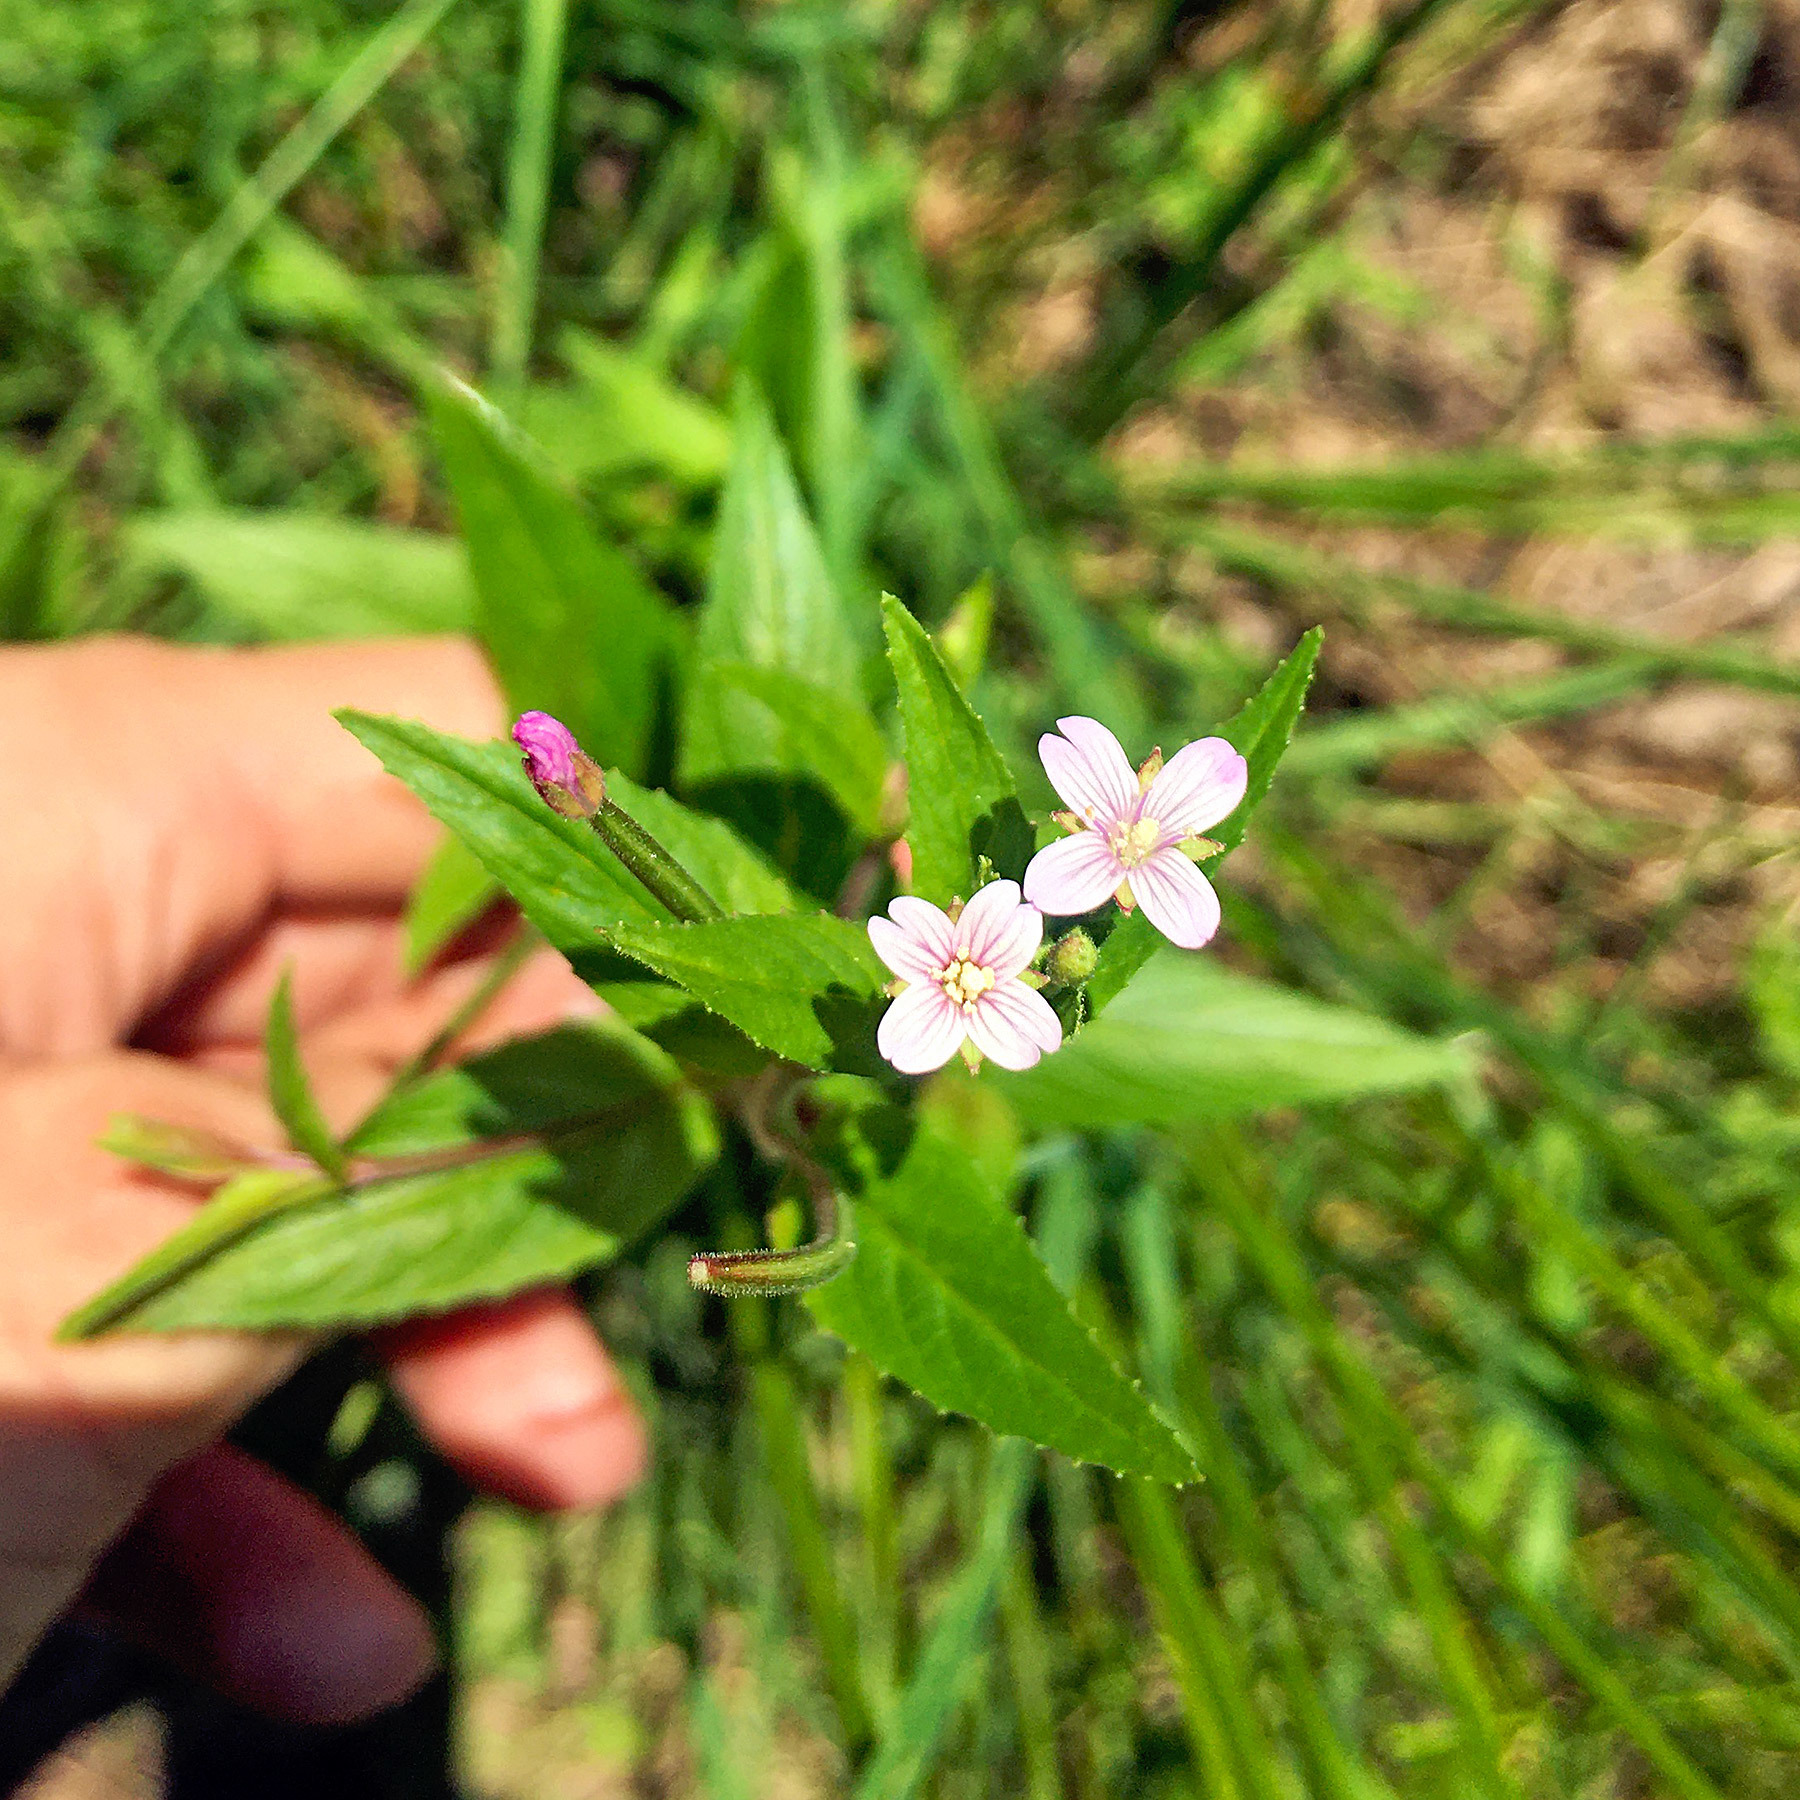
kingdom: Plantae
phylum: Tracheophyta
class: Magnoliopsida
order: Myrtales
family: Onagraceae
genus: Epilobium
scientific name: Epilobium ciliatum
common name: American willowherb
